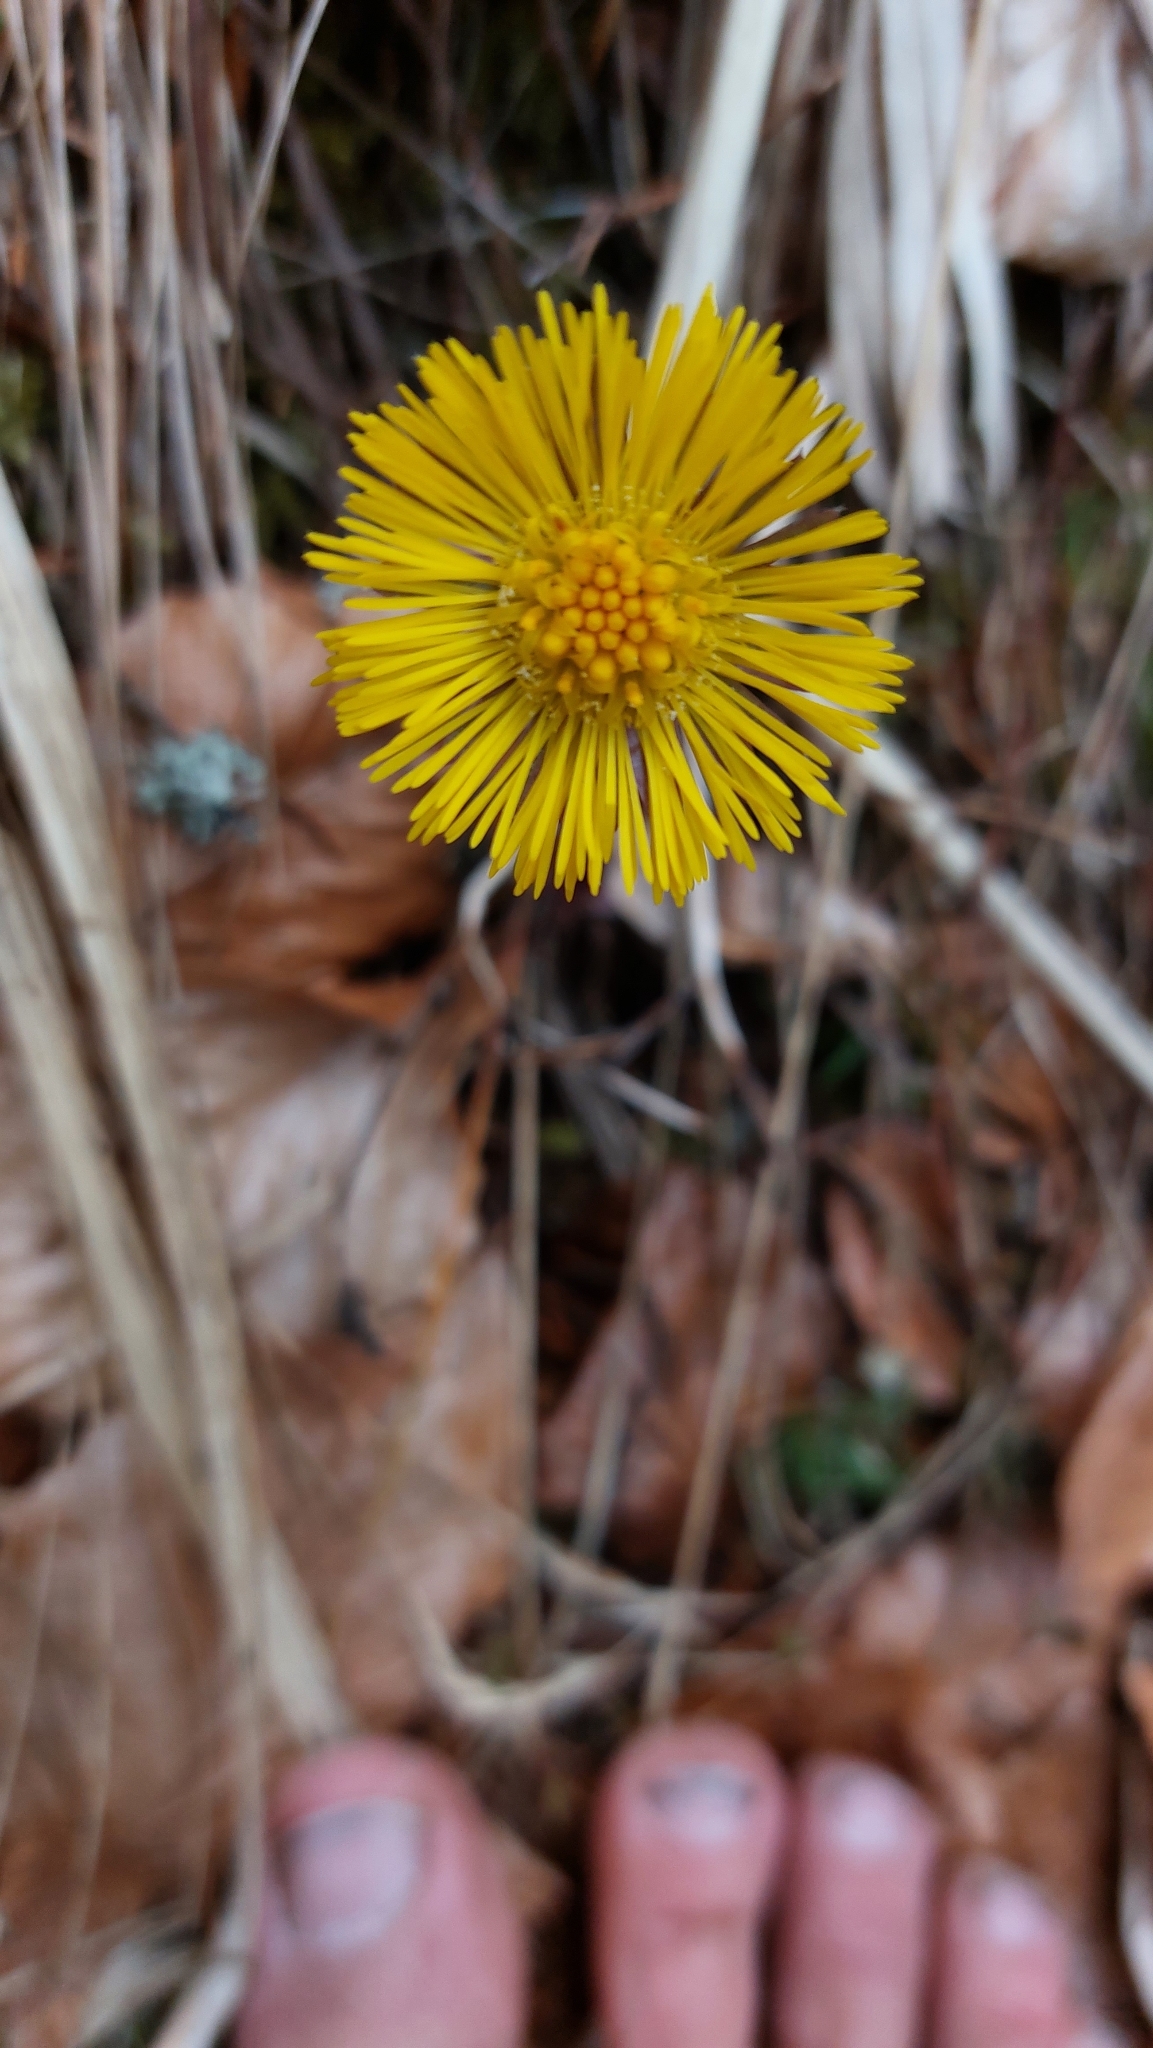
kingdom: Plantae
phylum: Tracheophyta
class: Magnoliopsida
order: Asterales
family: Asteraceae
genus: Tussilago
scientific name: Tussilago farfara
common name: Coltsfoot
